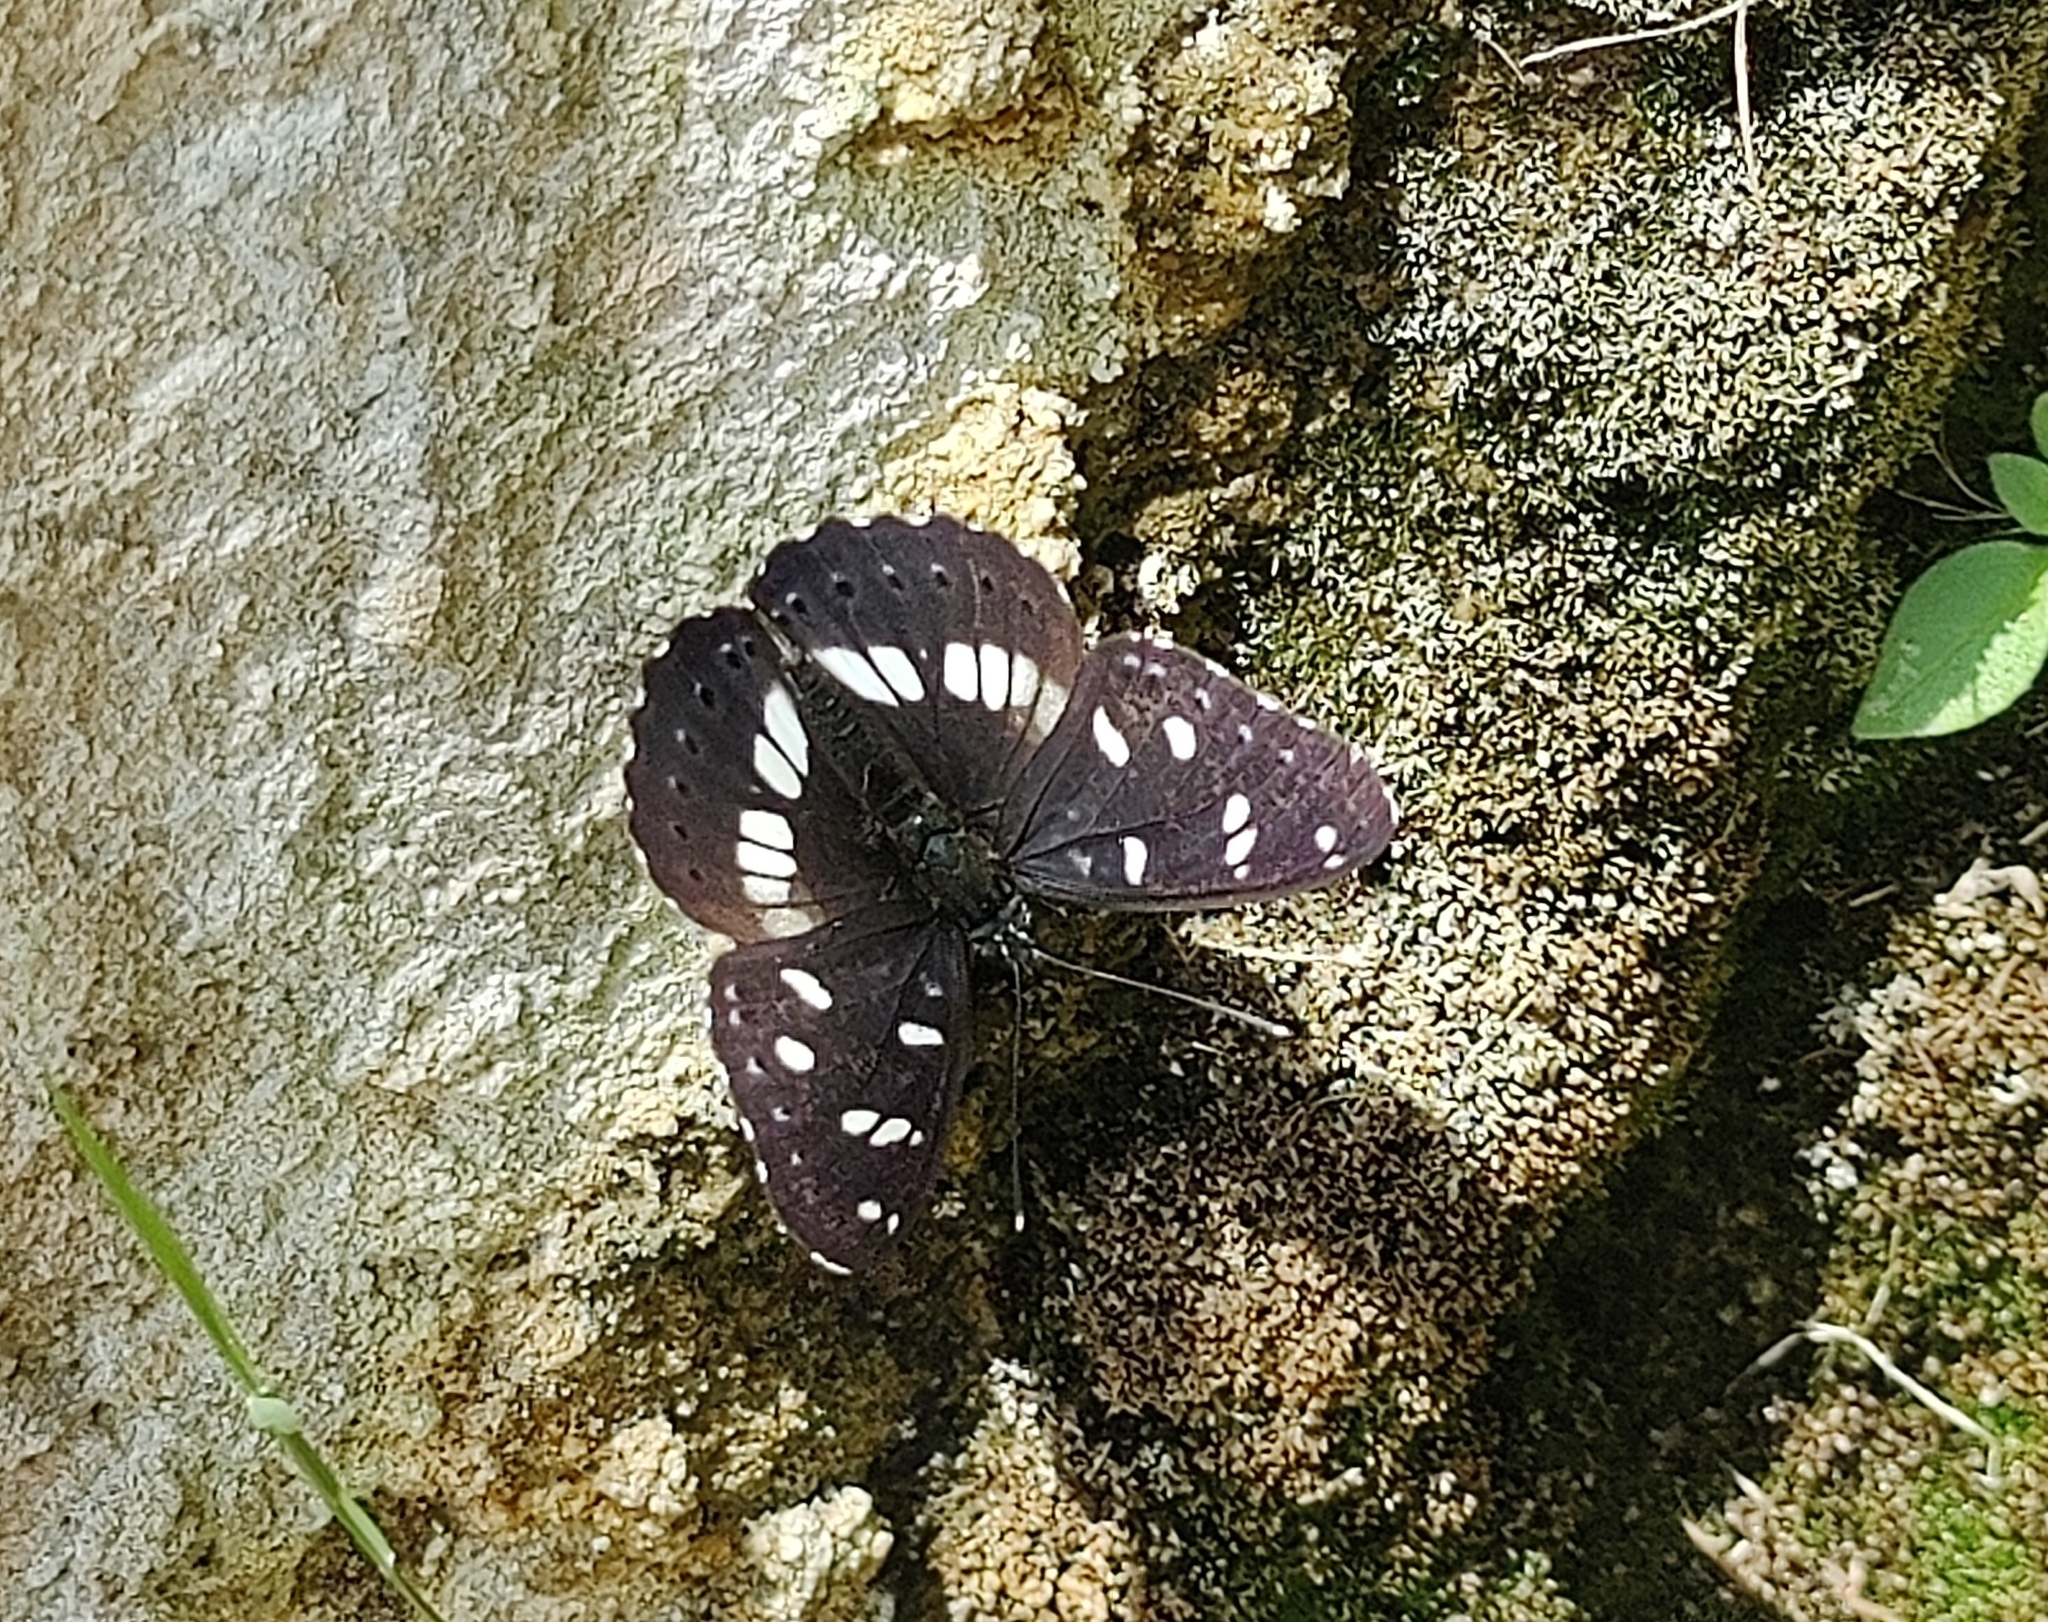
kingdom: Animalia
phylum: Arthropoda
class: Insecta
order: Lepidoptera
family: Nymphalidae
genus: Limenitis
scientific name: Limenitis reducta
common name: Southern white admiral
